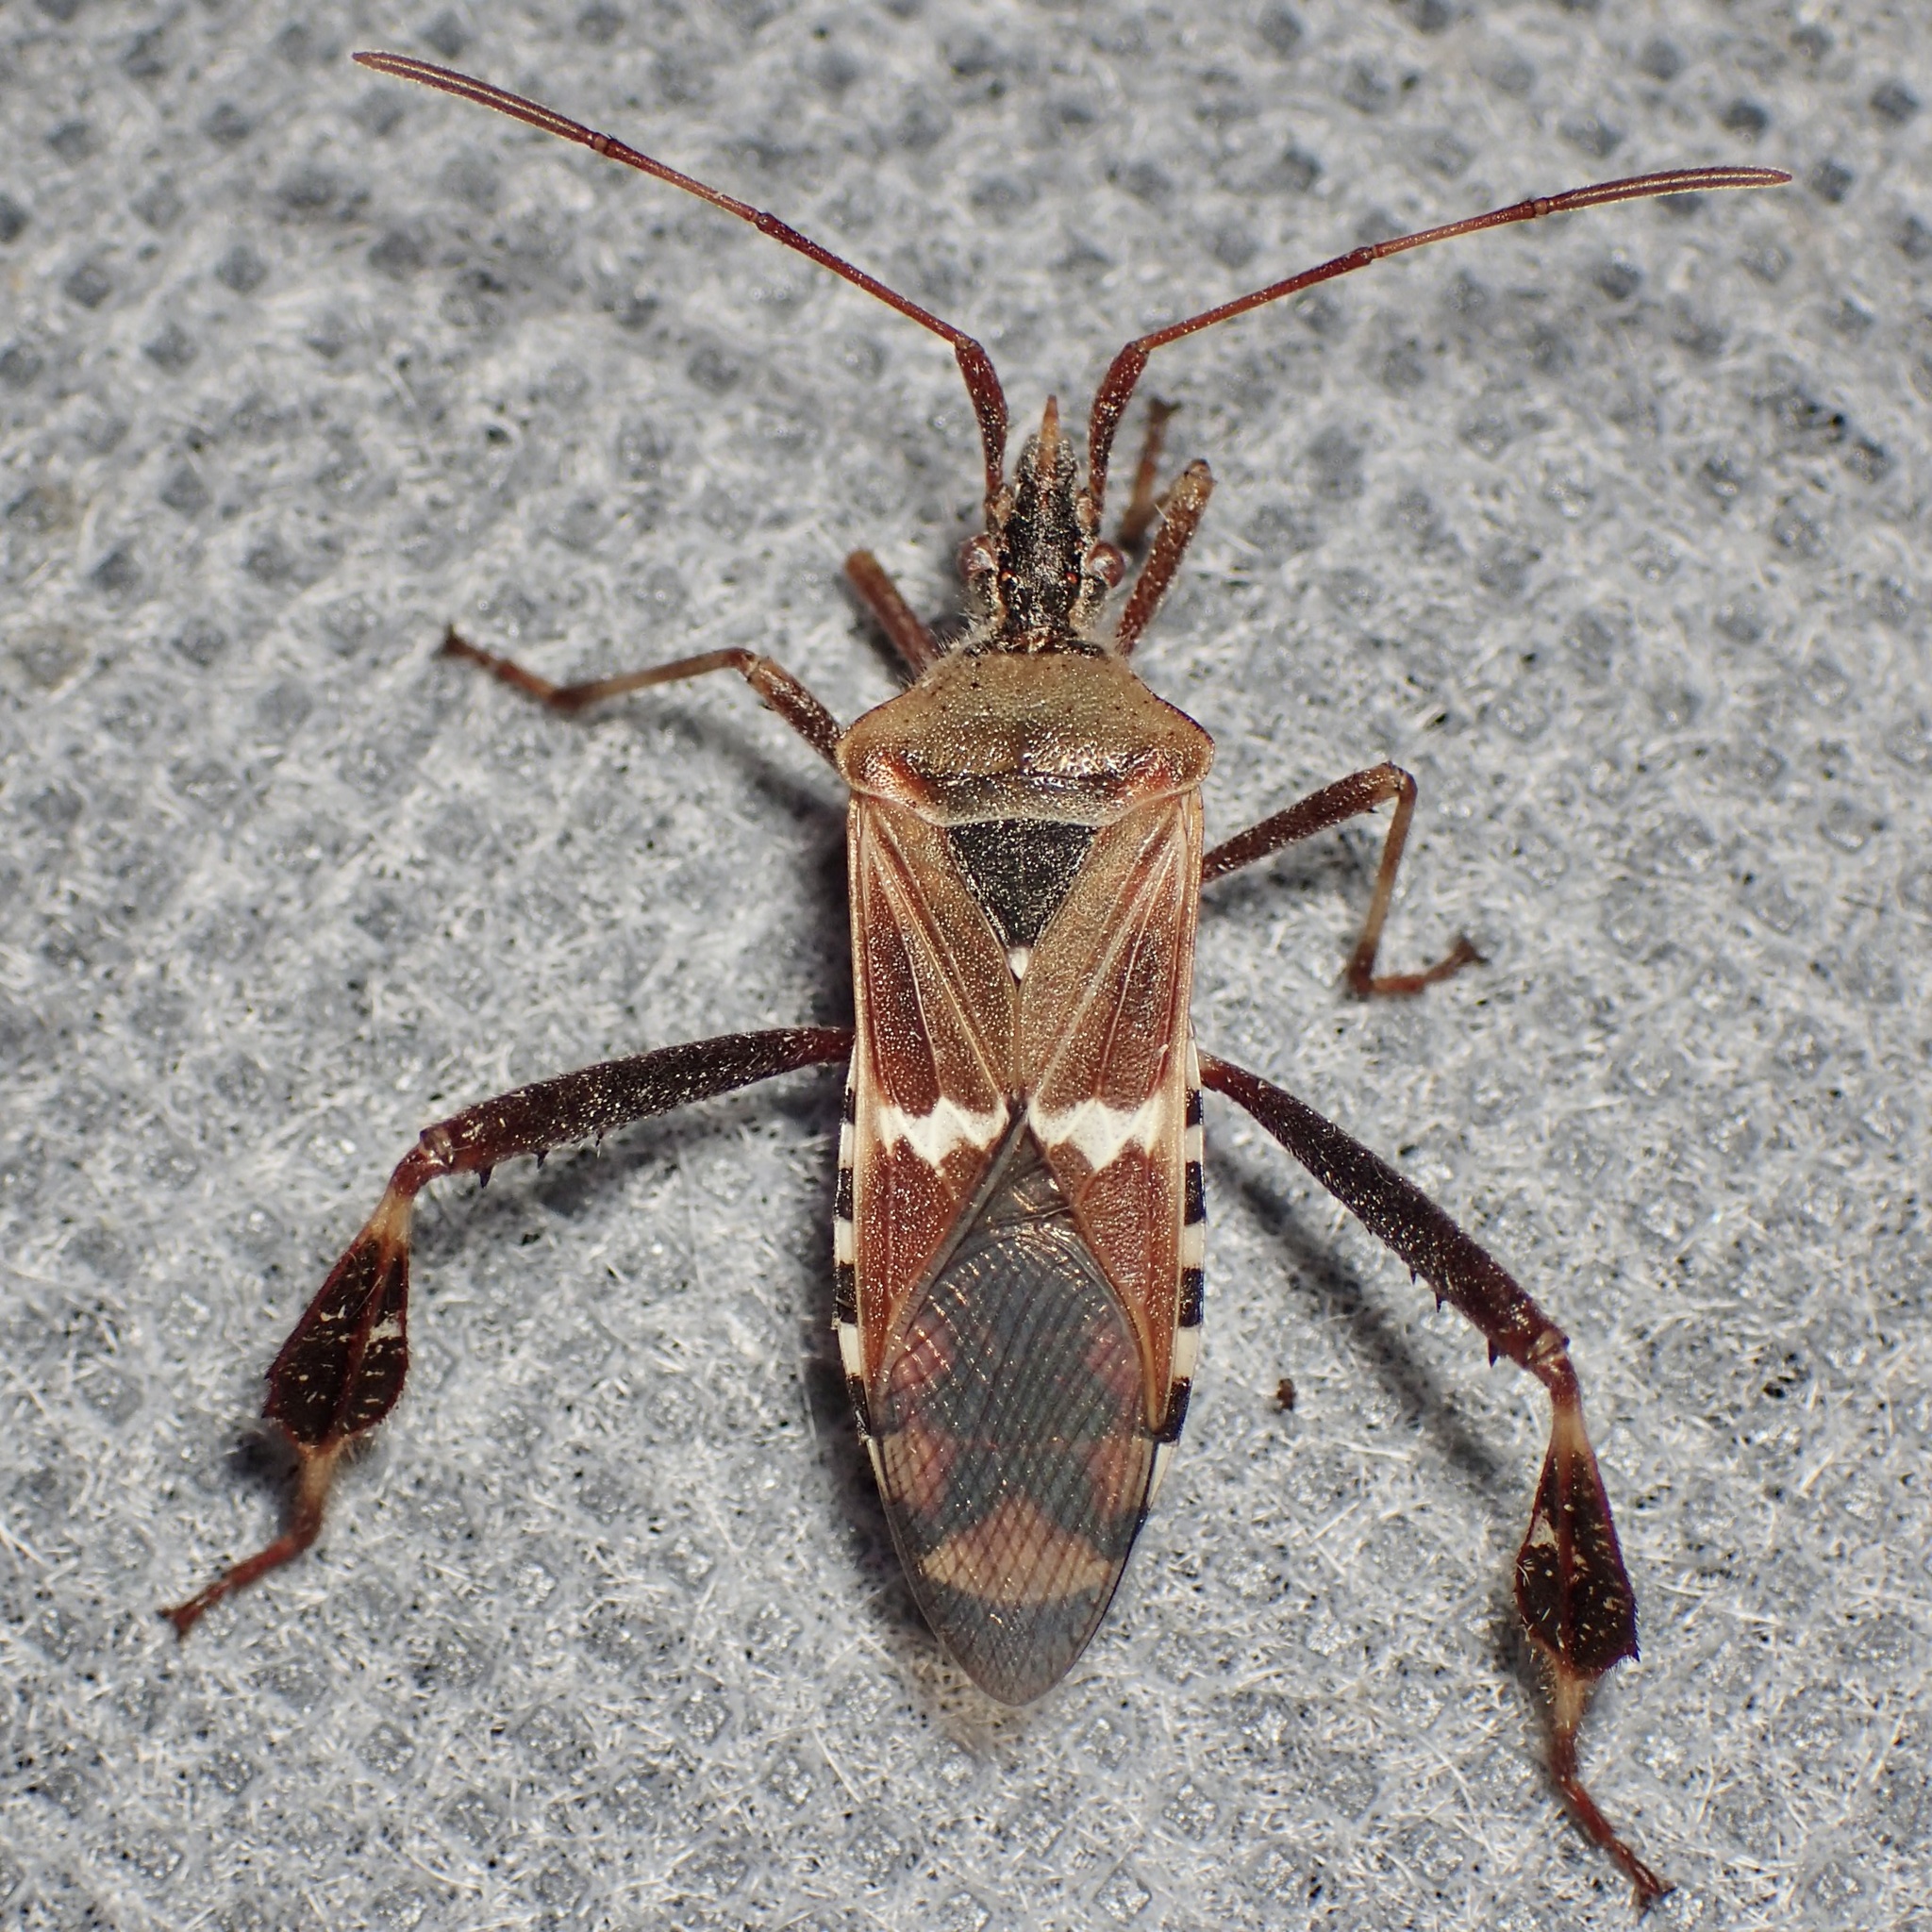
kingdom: Animalia
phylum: Arthropoda
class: Insecta
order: Hemiptera
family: Coreidae
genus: Leptoglossus
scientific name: Leptoglossus clypealis
